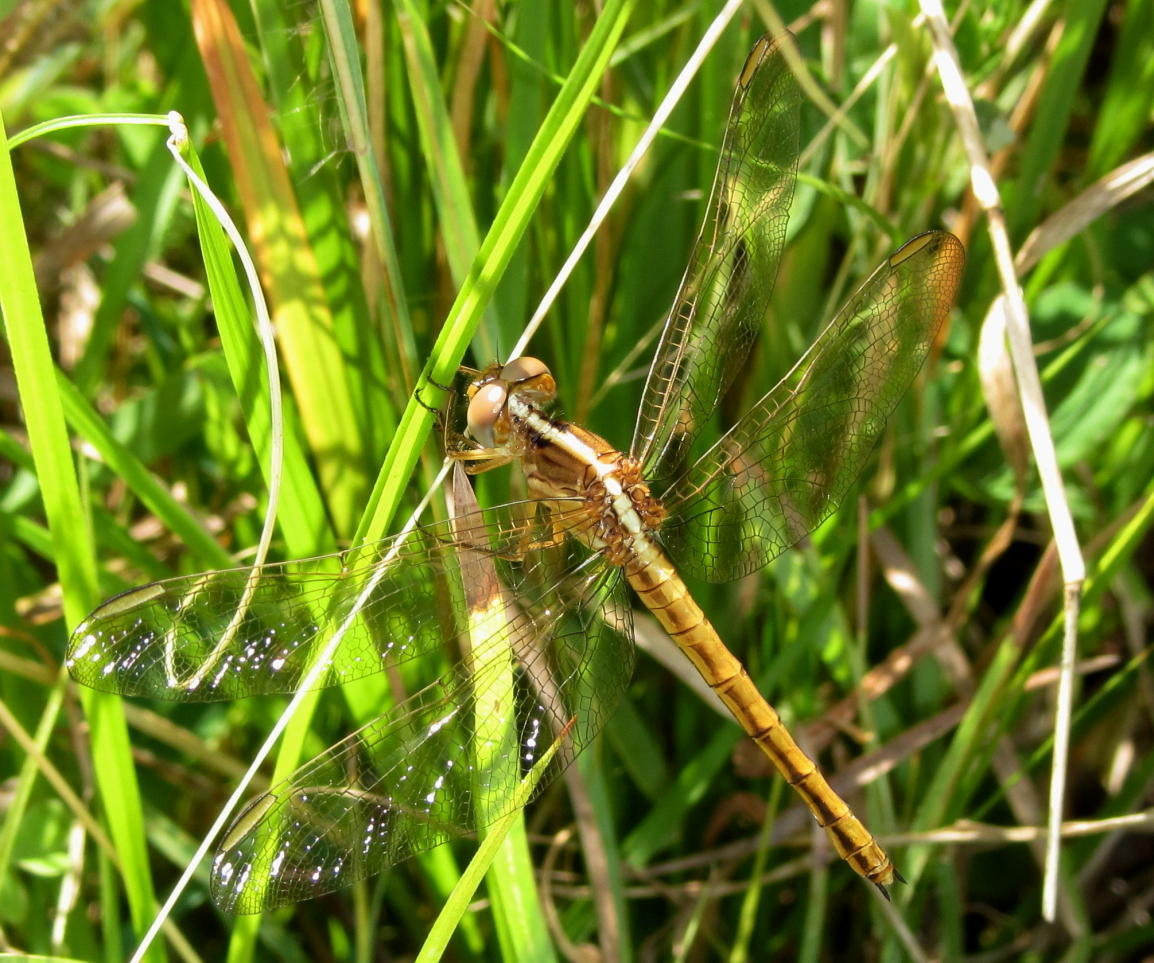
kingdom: Animalia
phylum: Arthropoda
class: Insecta
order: Odonata
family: Libellulidae
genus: Nesciothemis
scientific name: Nesciothemis farinosa
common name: Eastern blacktail
